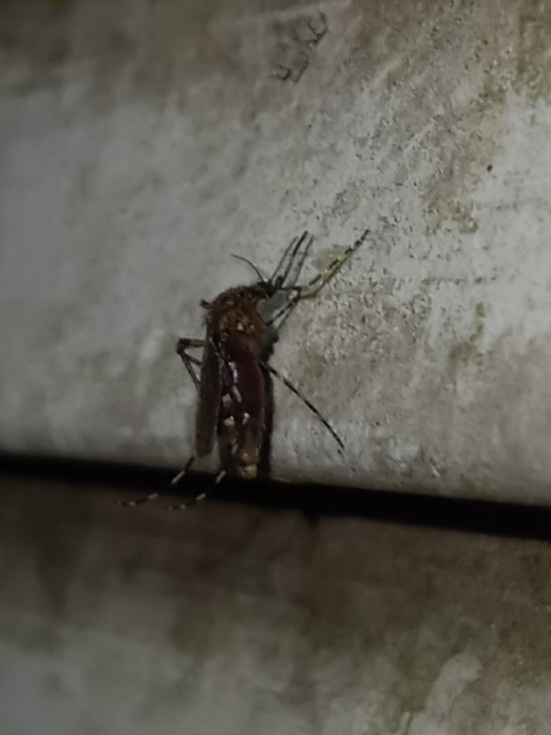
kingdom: Animalia
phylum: Arthropoda
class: Insecta
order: Diptera
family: Culicidae
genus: Coquillettidia
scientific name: Coquillettidia perturbans
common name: Cattail mosquito
